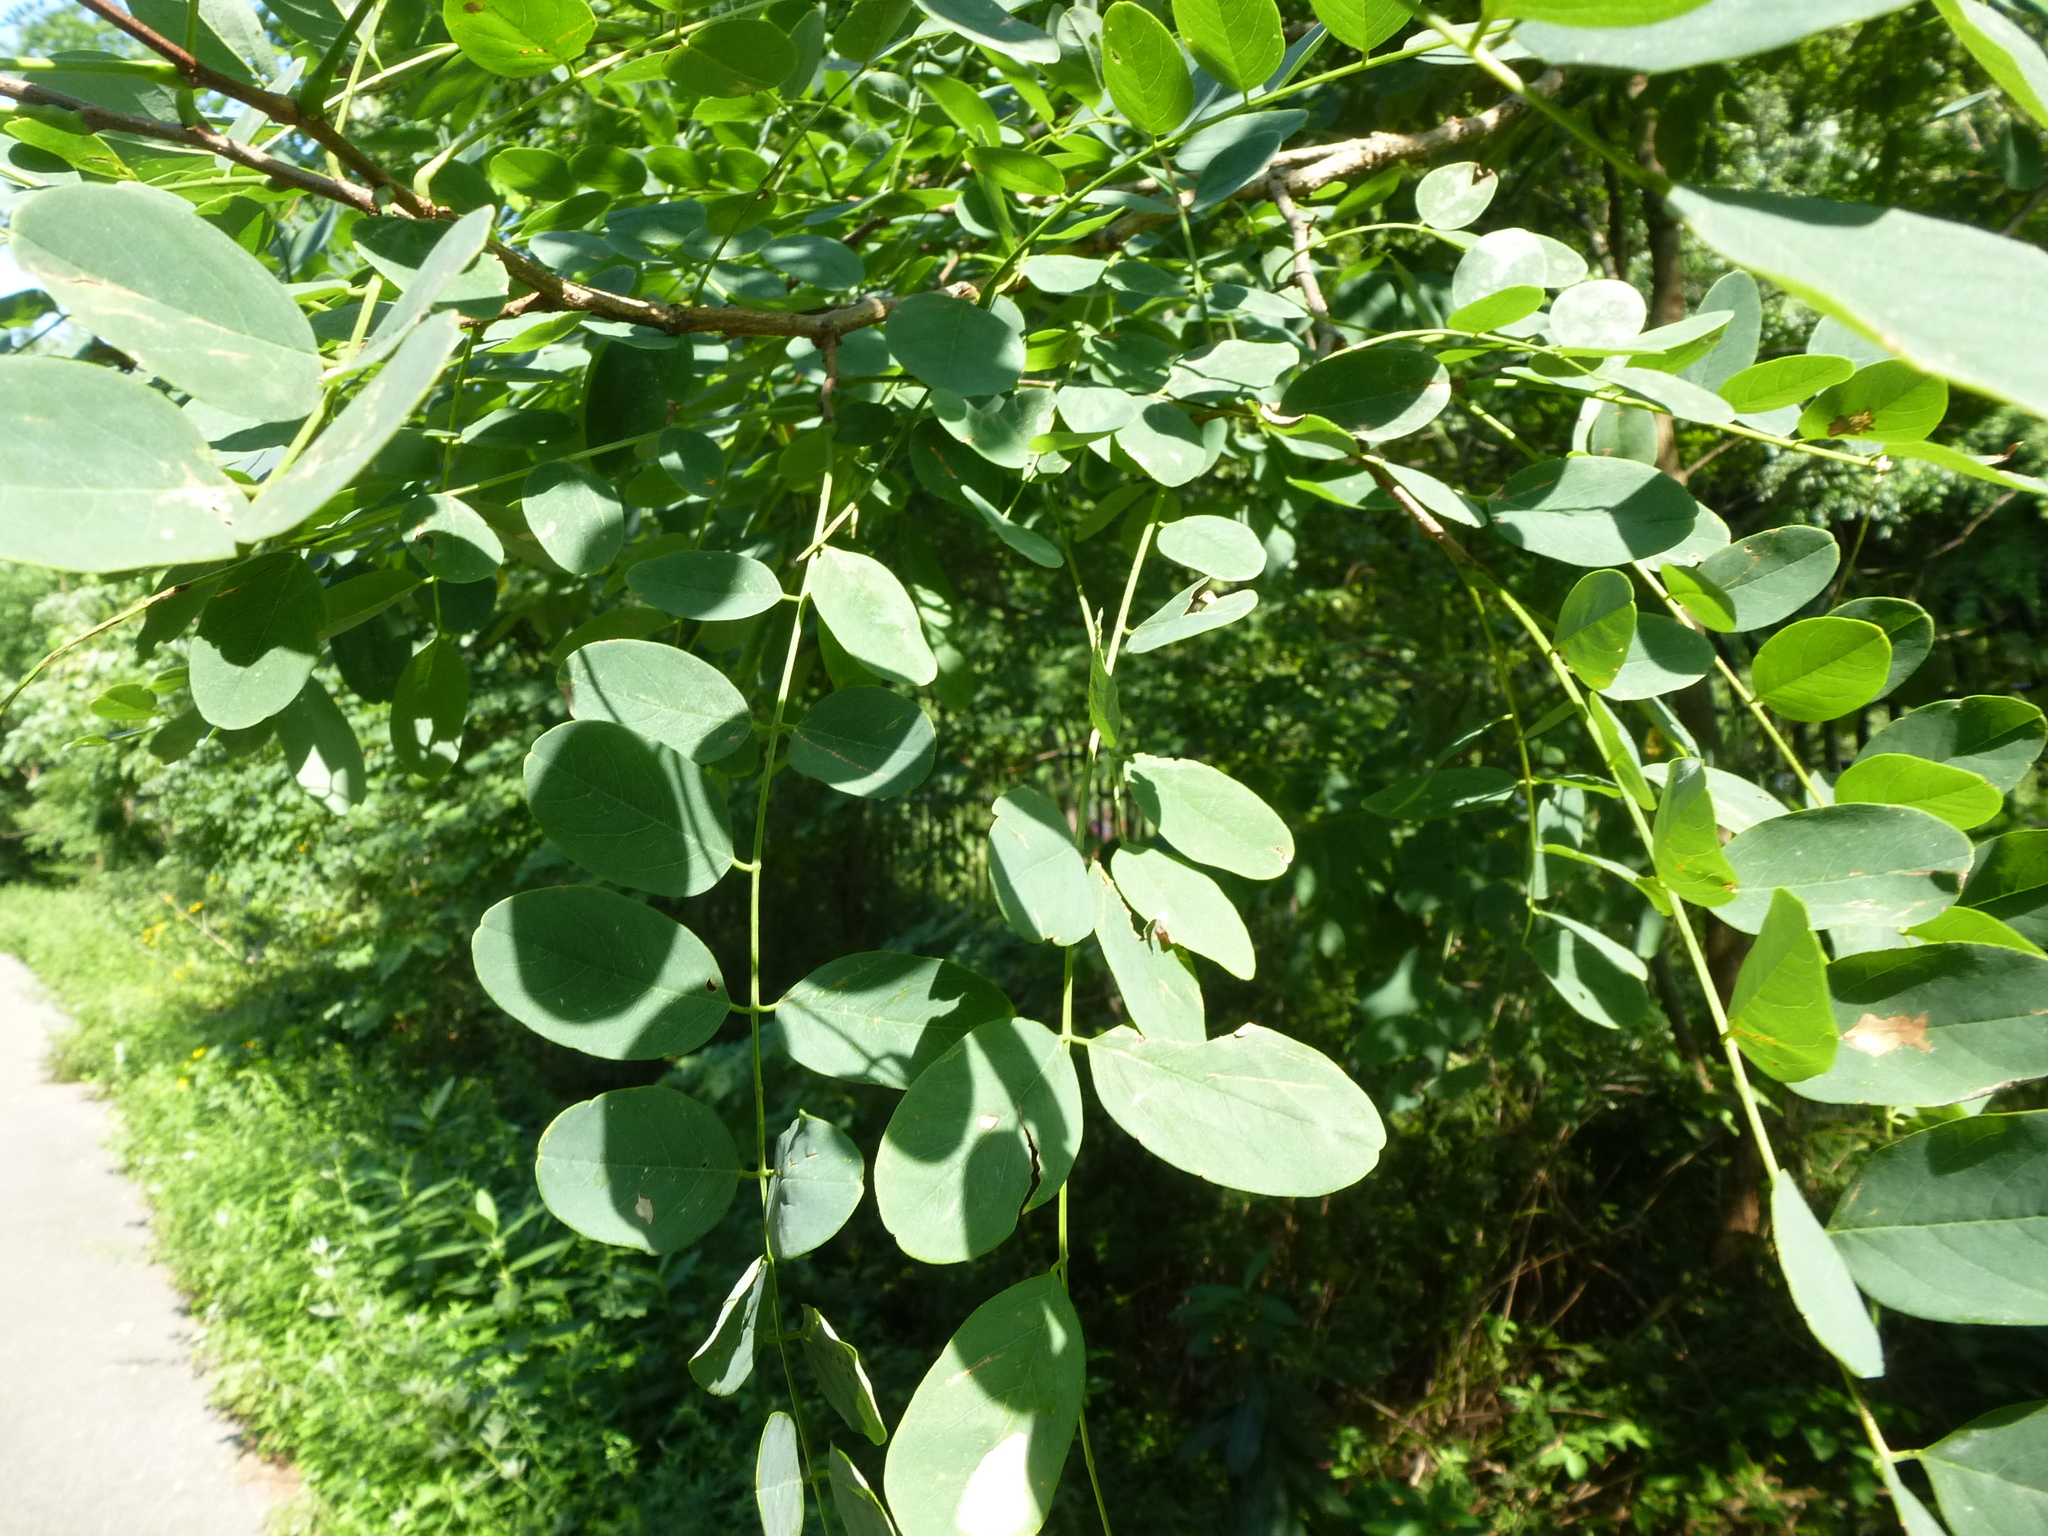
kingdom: Plantae
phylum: Tracheophyta
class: Magnoliopsida
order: Fabales
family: Fabaceae
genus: Robinia
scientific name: Robinia pseudoacacia
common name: Black locust
